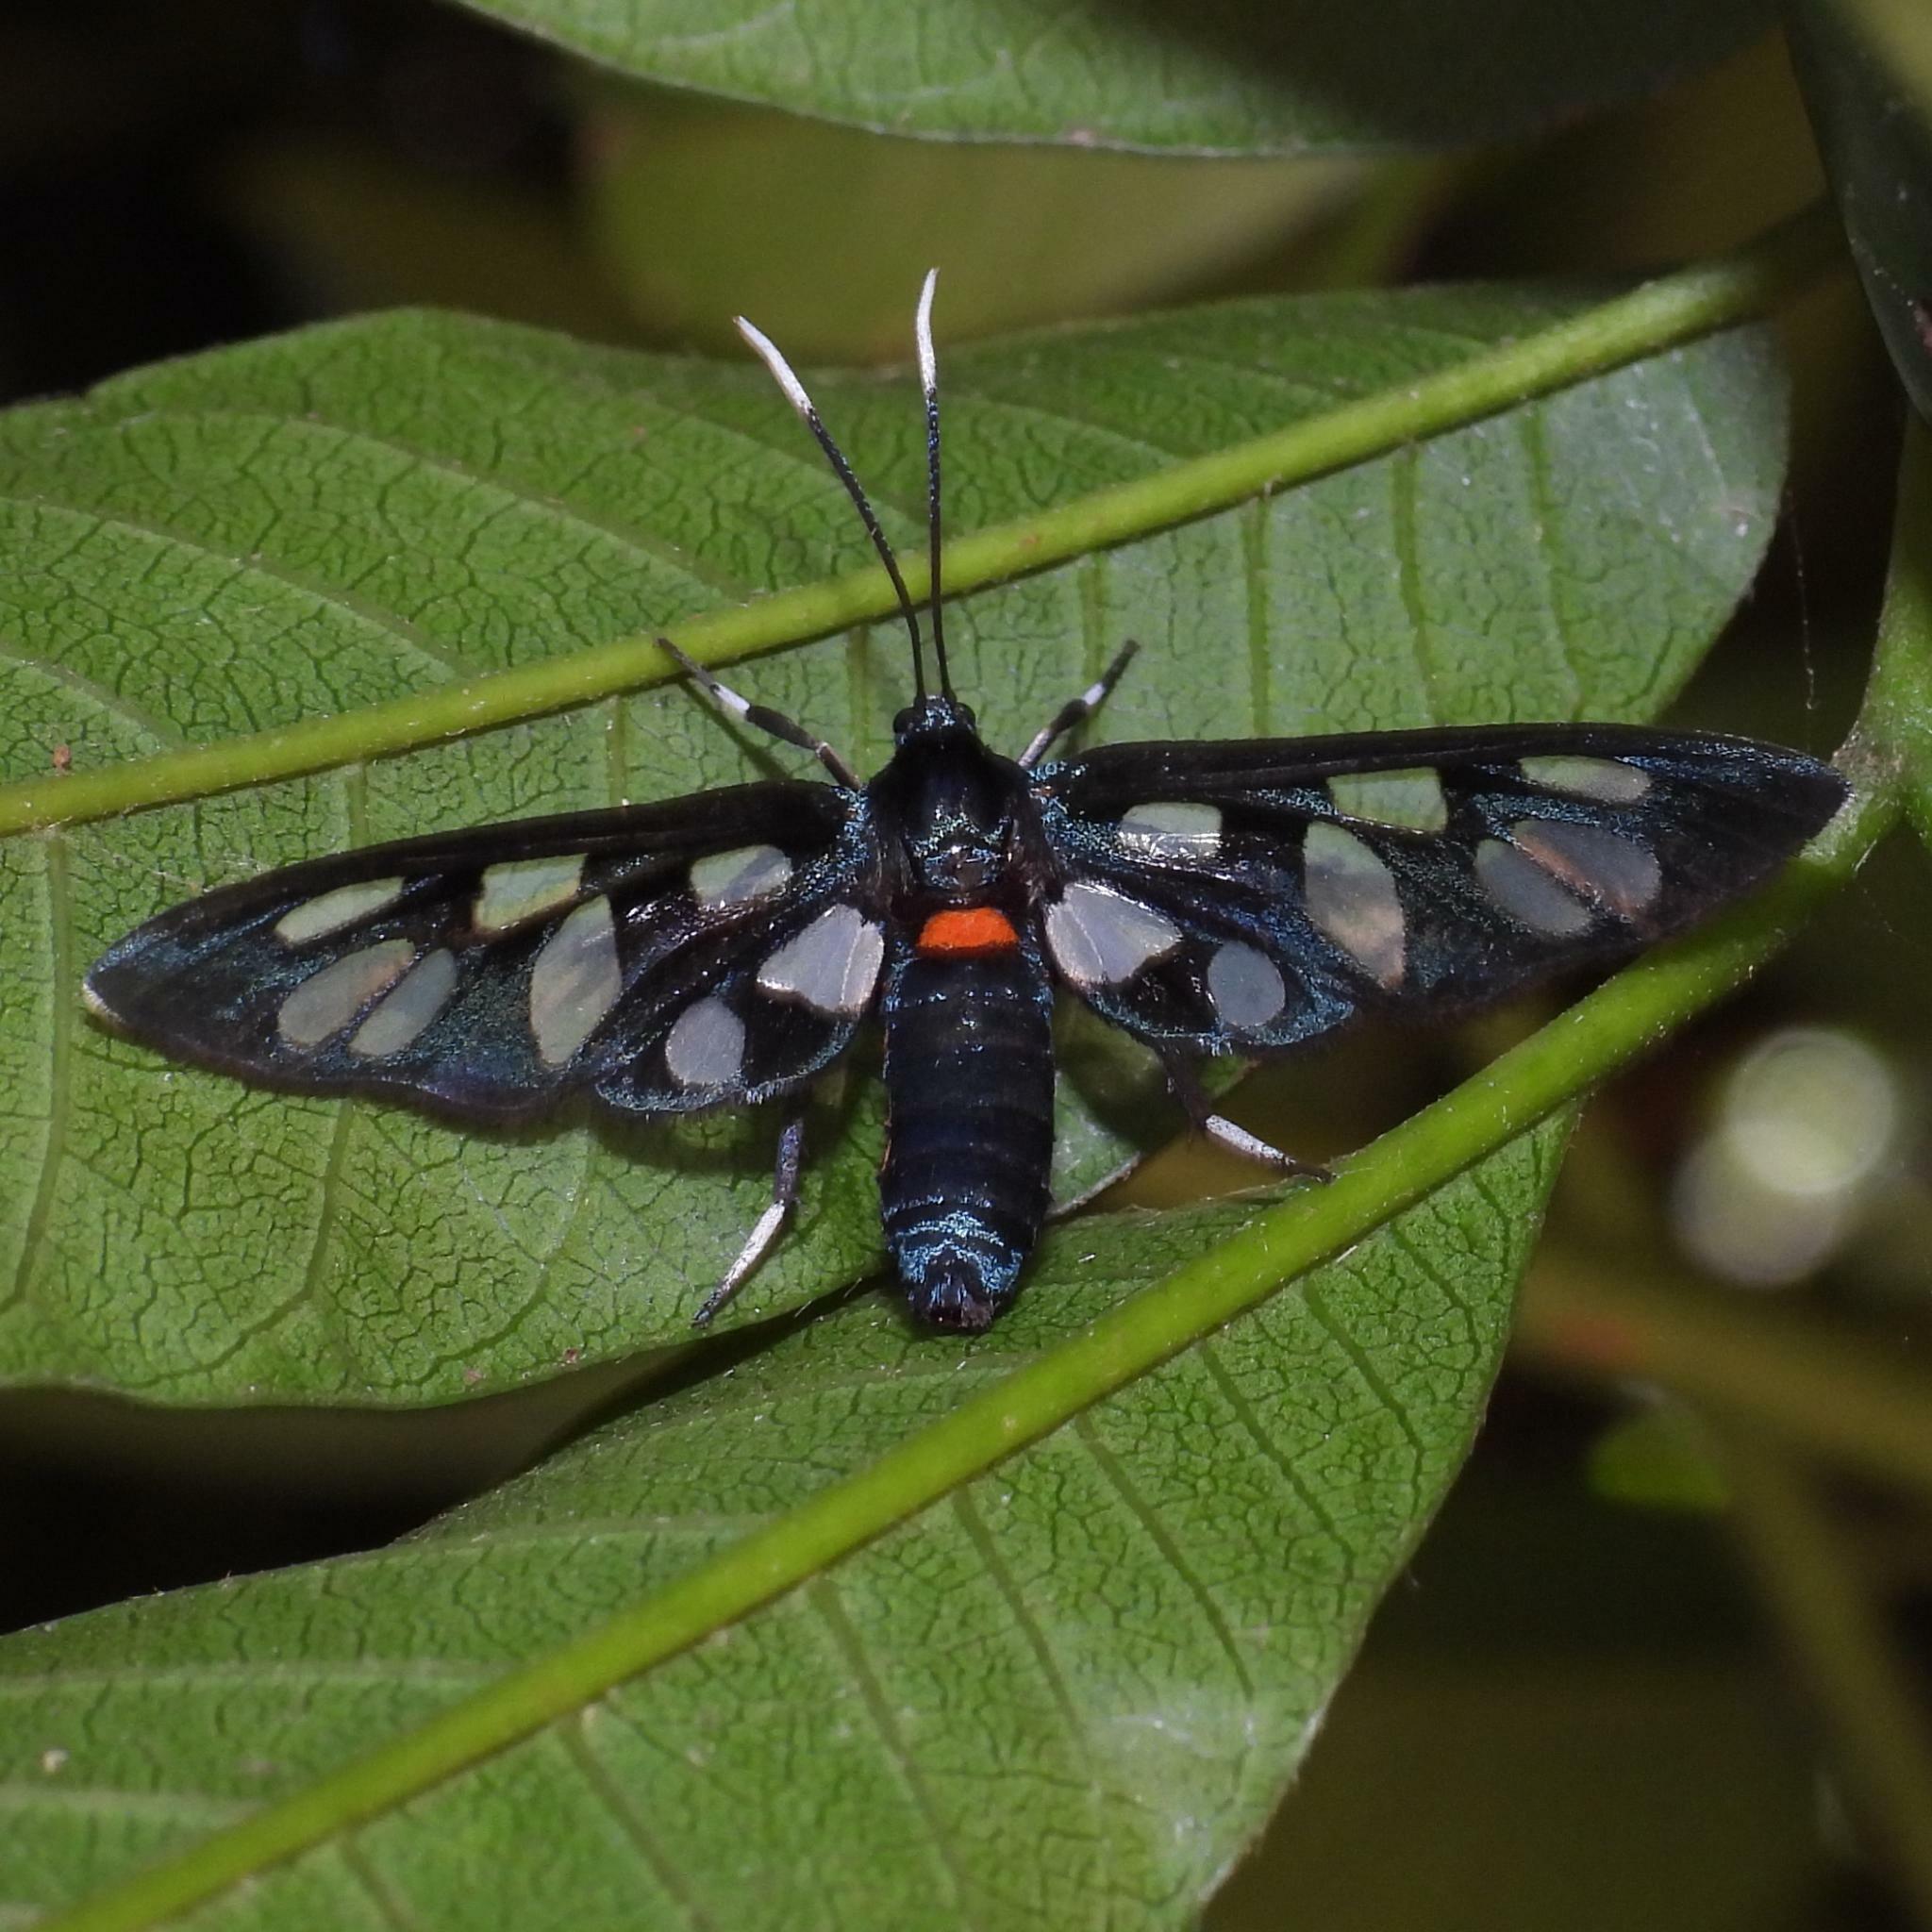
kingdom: Animalia
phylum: Arthropoda
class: Insecta
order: Lepidoptera
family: Erebidae
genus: Amata
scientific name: Amata kuhlweini
